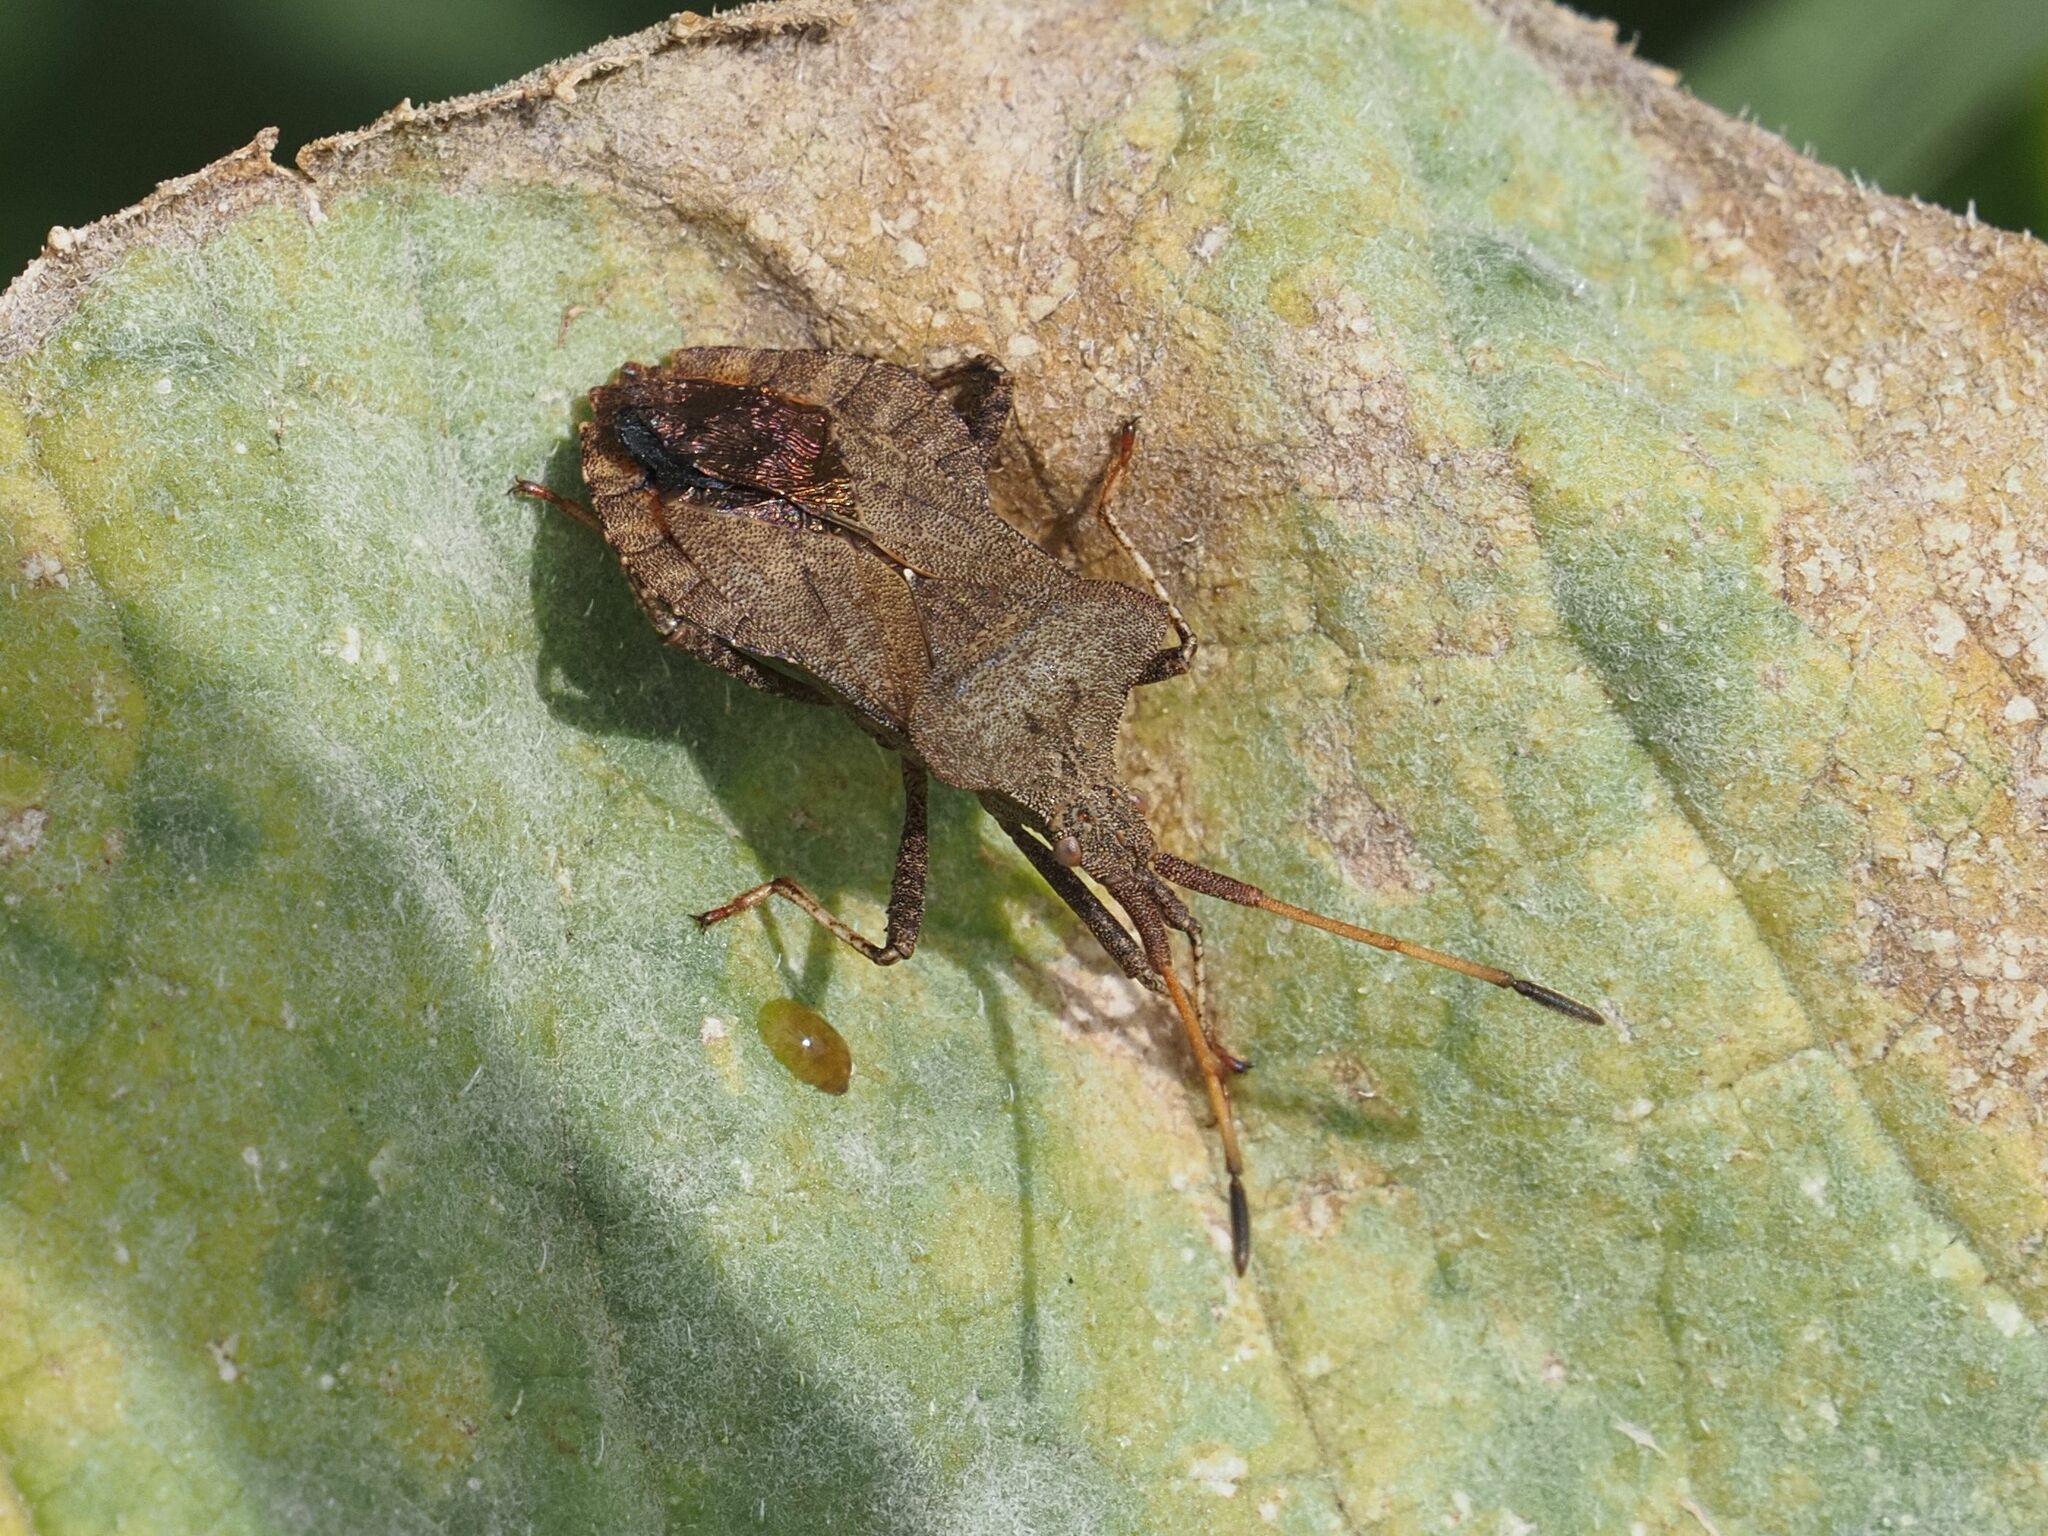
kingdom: Animalia
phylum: Arthropoda
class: Insecta
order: Hemiptera
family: Coreidae
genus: Coreus
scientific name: Coreus marginatus
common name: Dock bug
